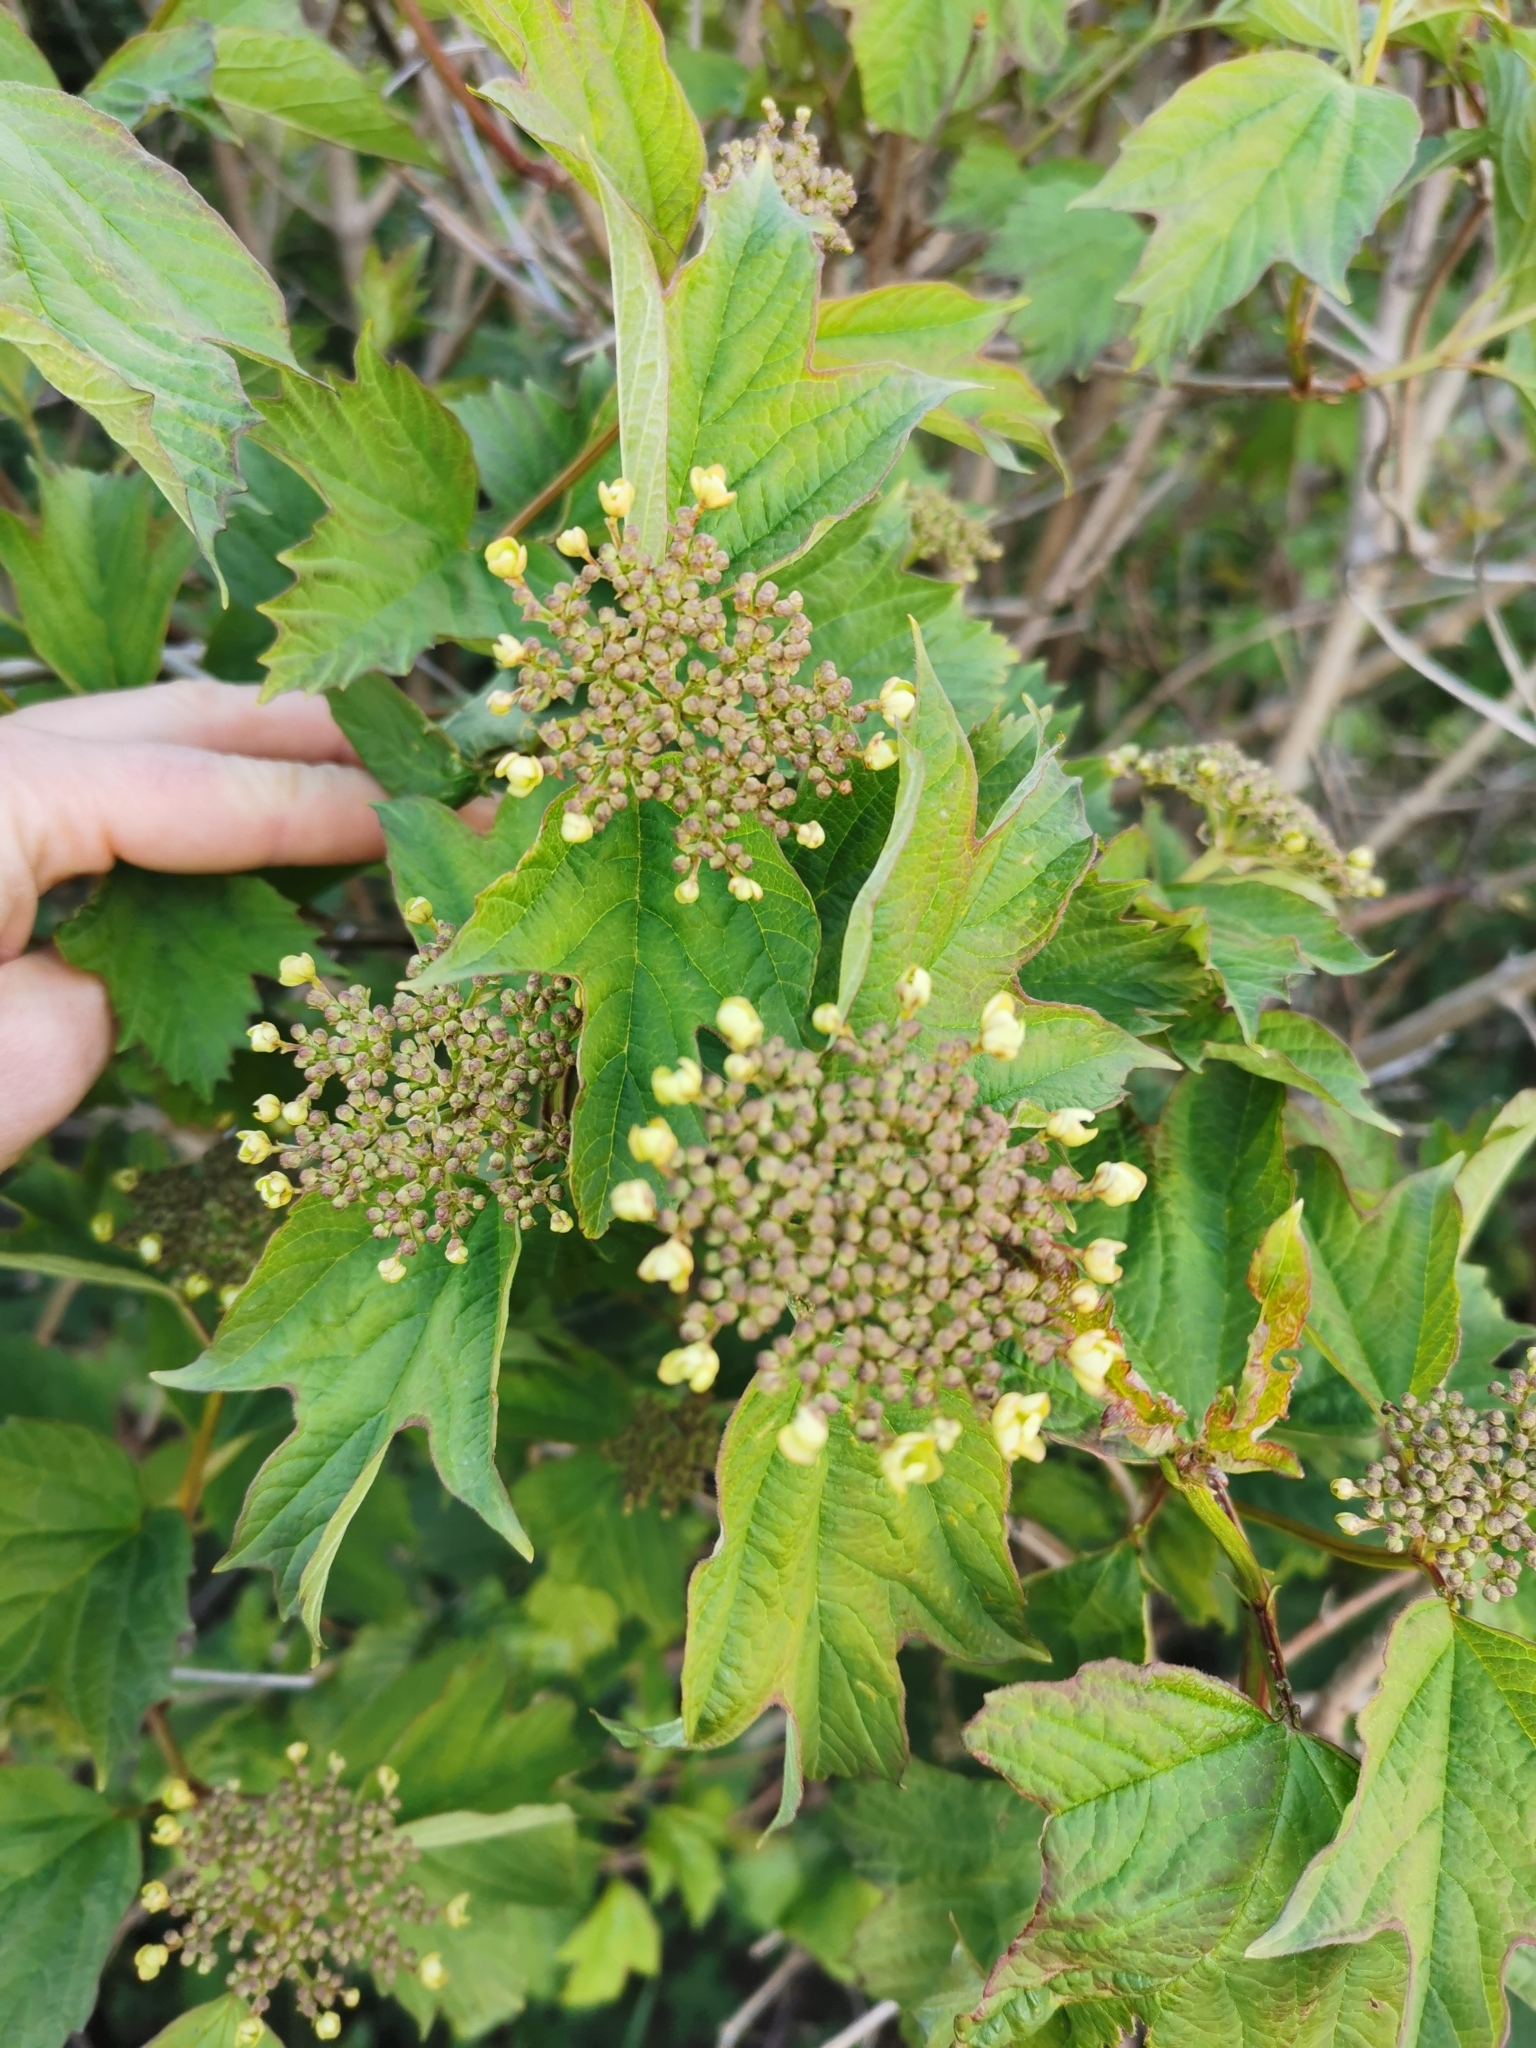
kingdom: Plantae
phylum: Tracheophyta
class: Magnoliopsida
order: Dipsacales
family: Viburnaceae
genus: Viburnum
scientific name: Viburnum opulus
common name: Guelder-rose
